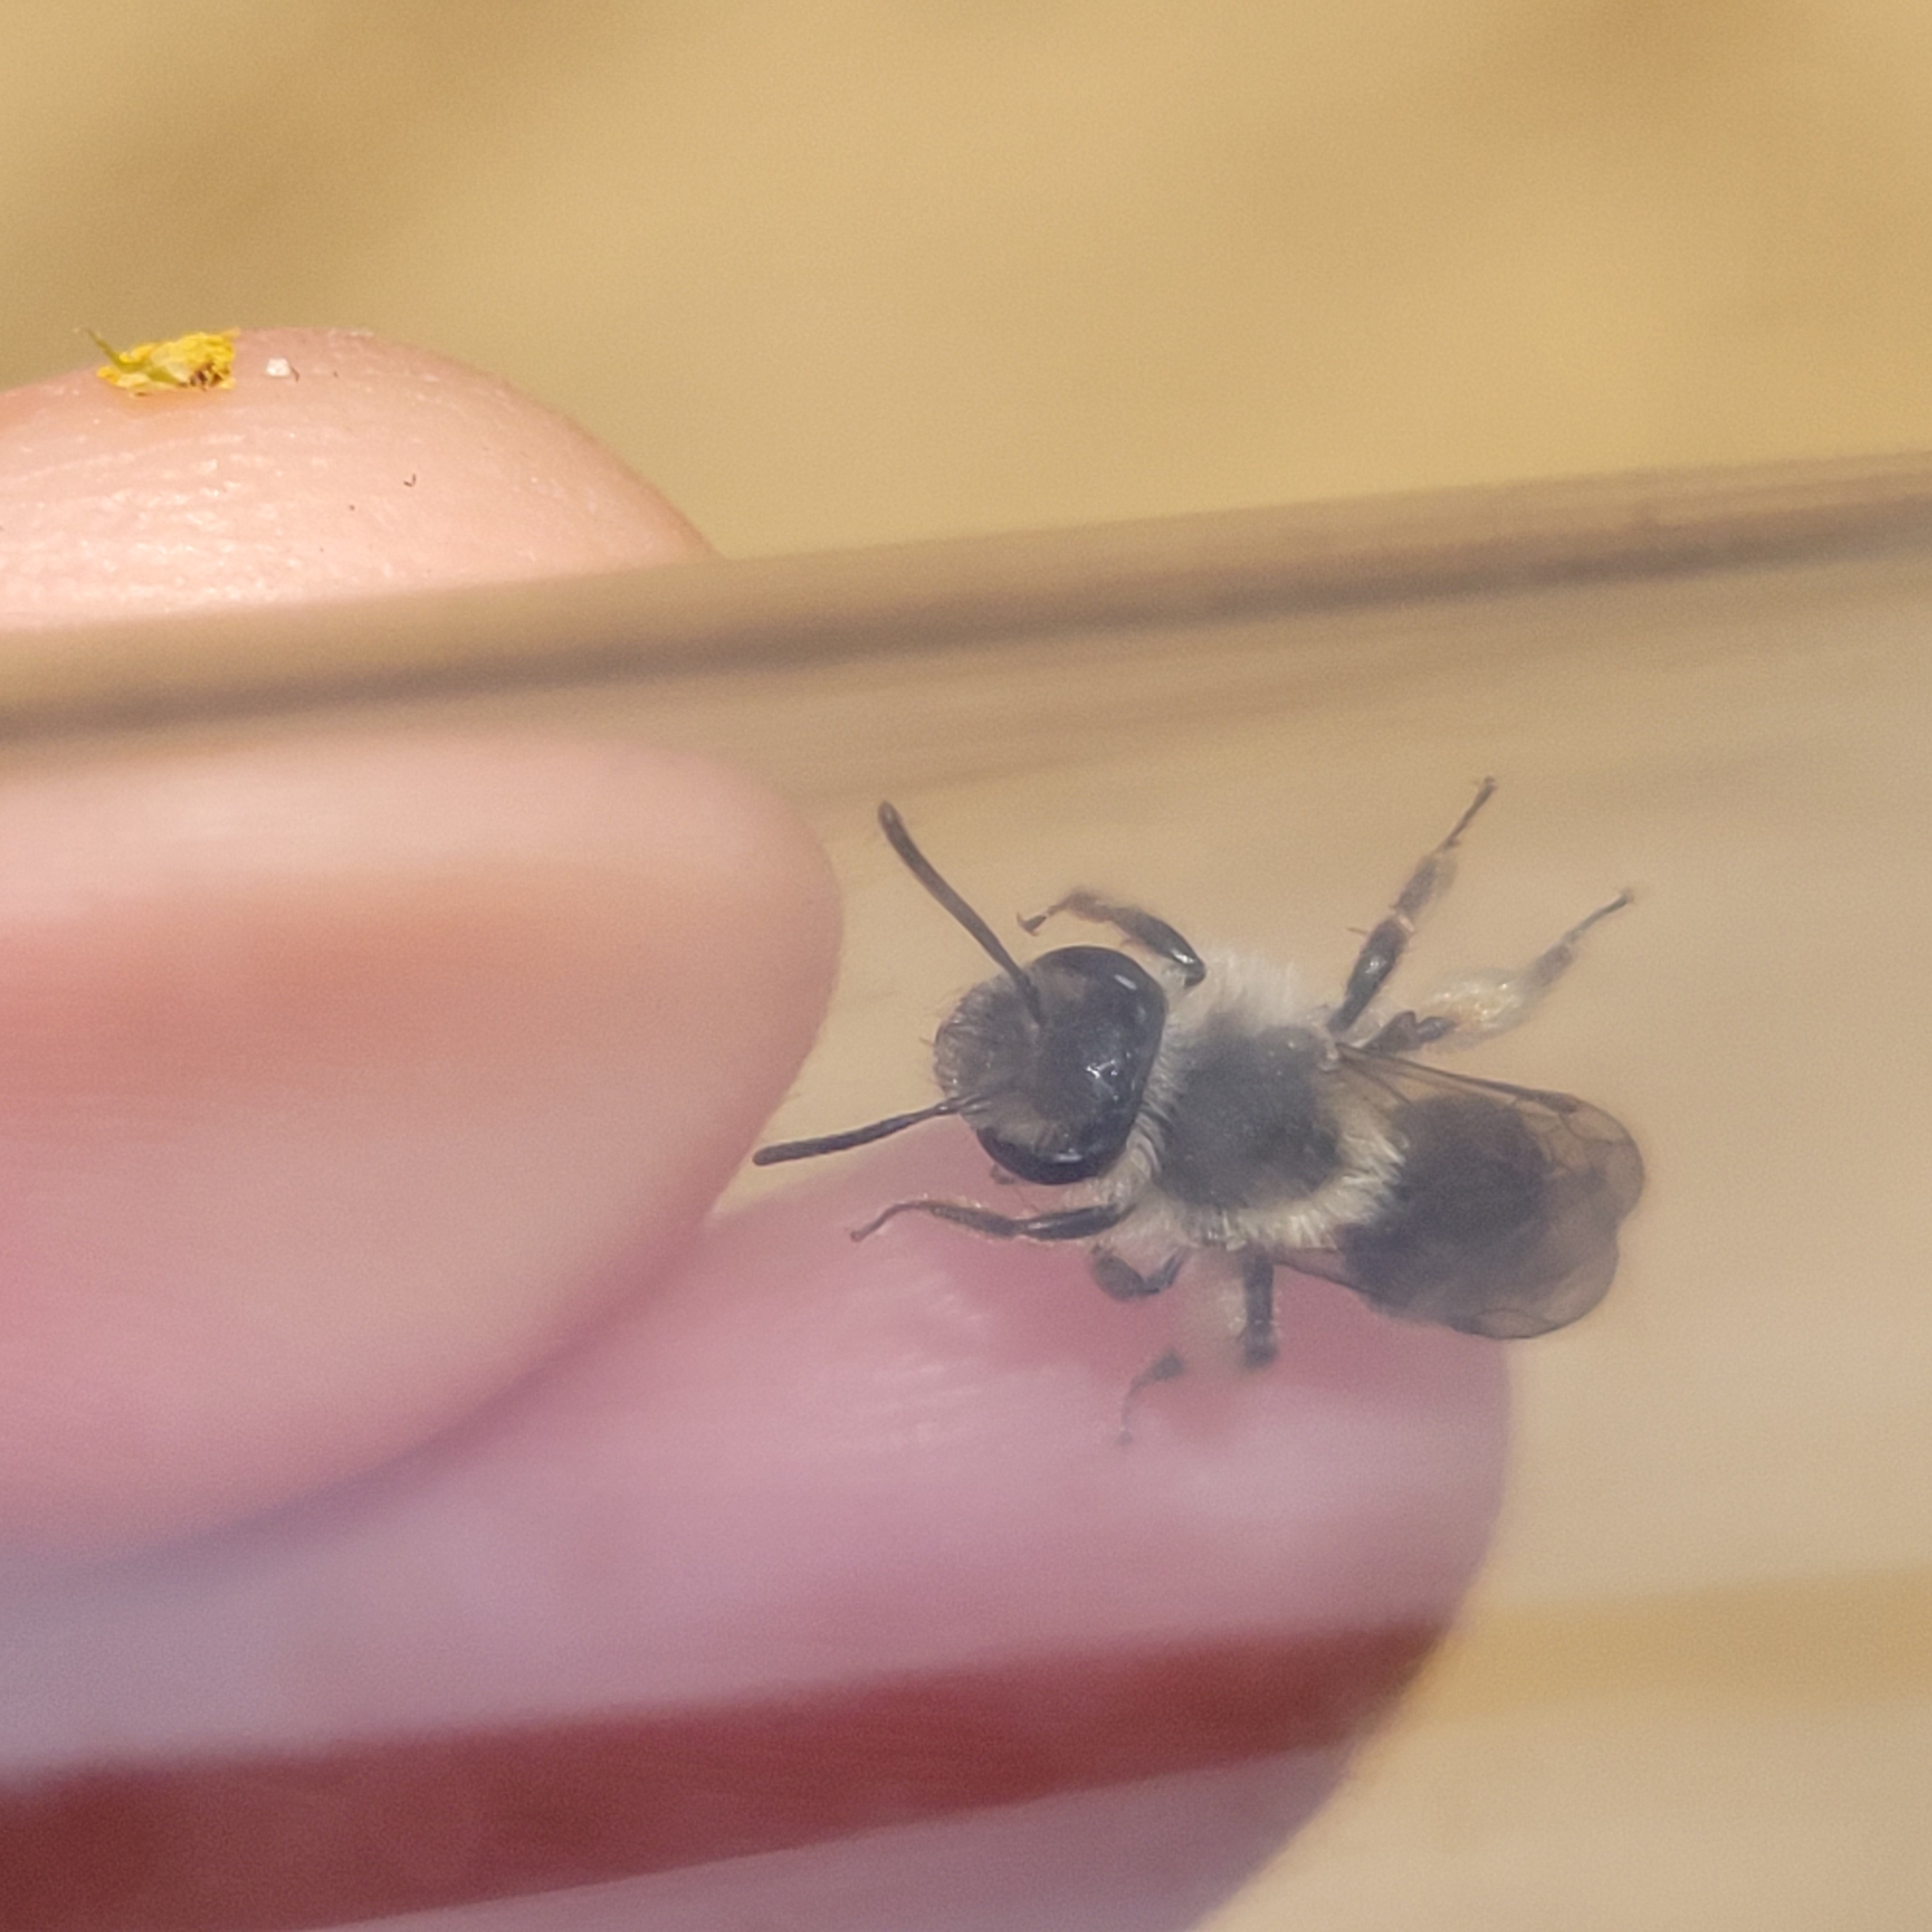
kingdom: Animalia
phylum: Arthropoda
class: Insecta
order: Hymenoptera
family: Andrenidae
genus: Andrena
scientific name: Andrena tridens
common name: Trident miner bee
